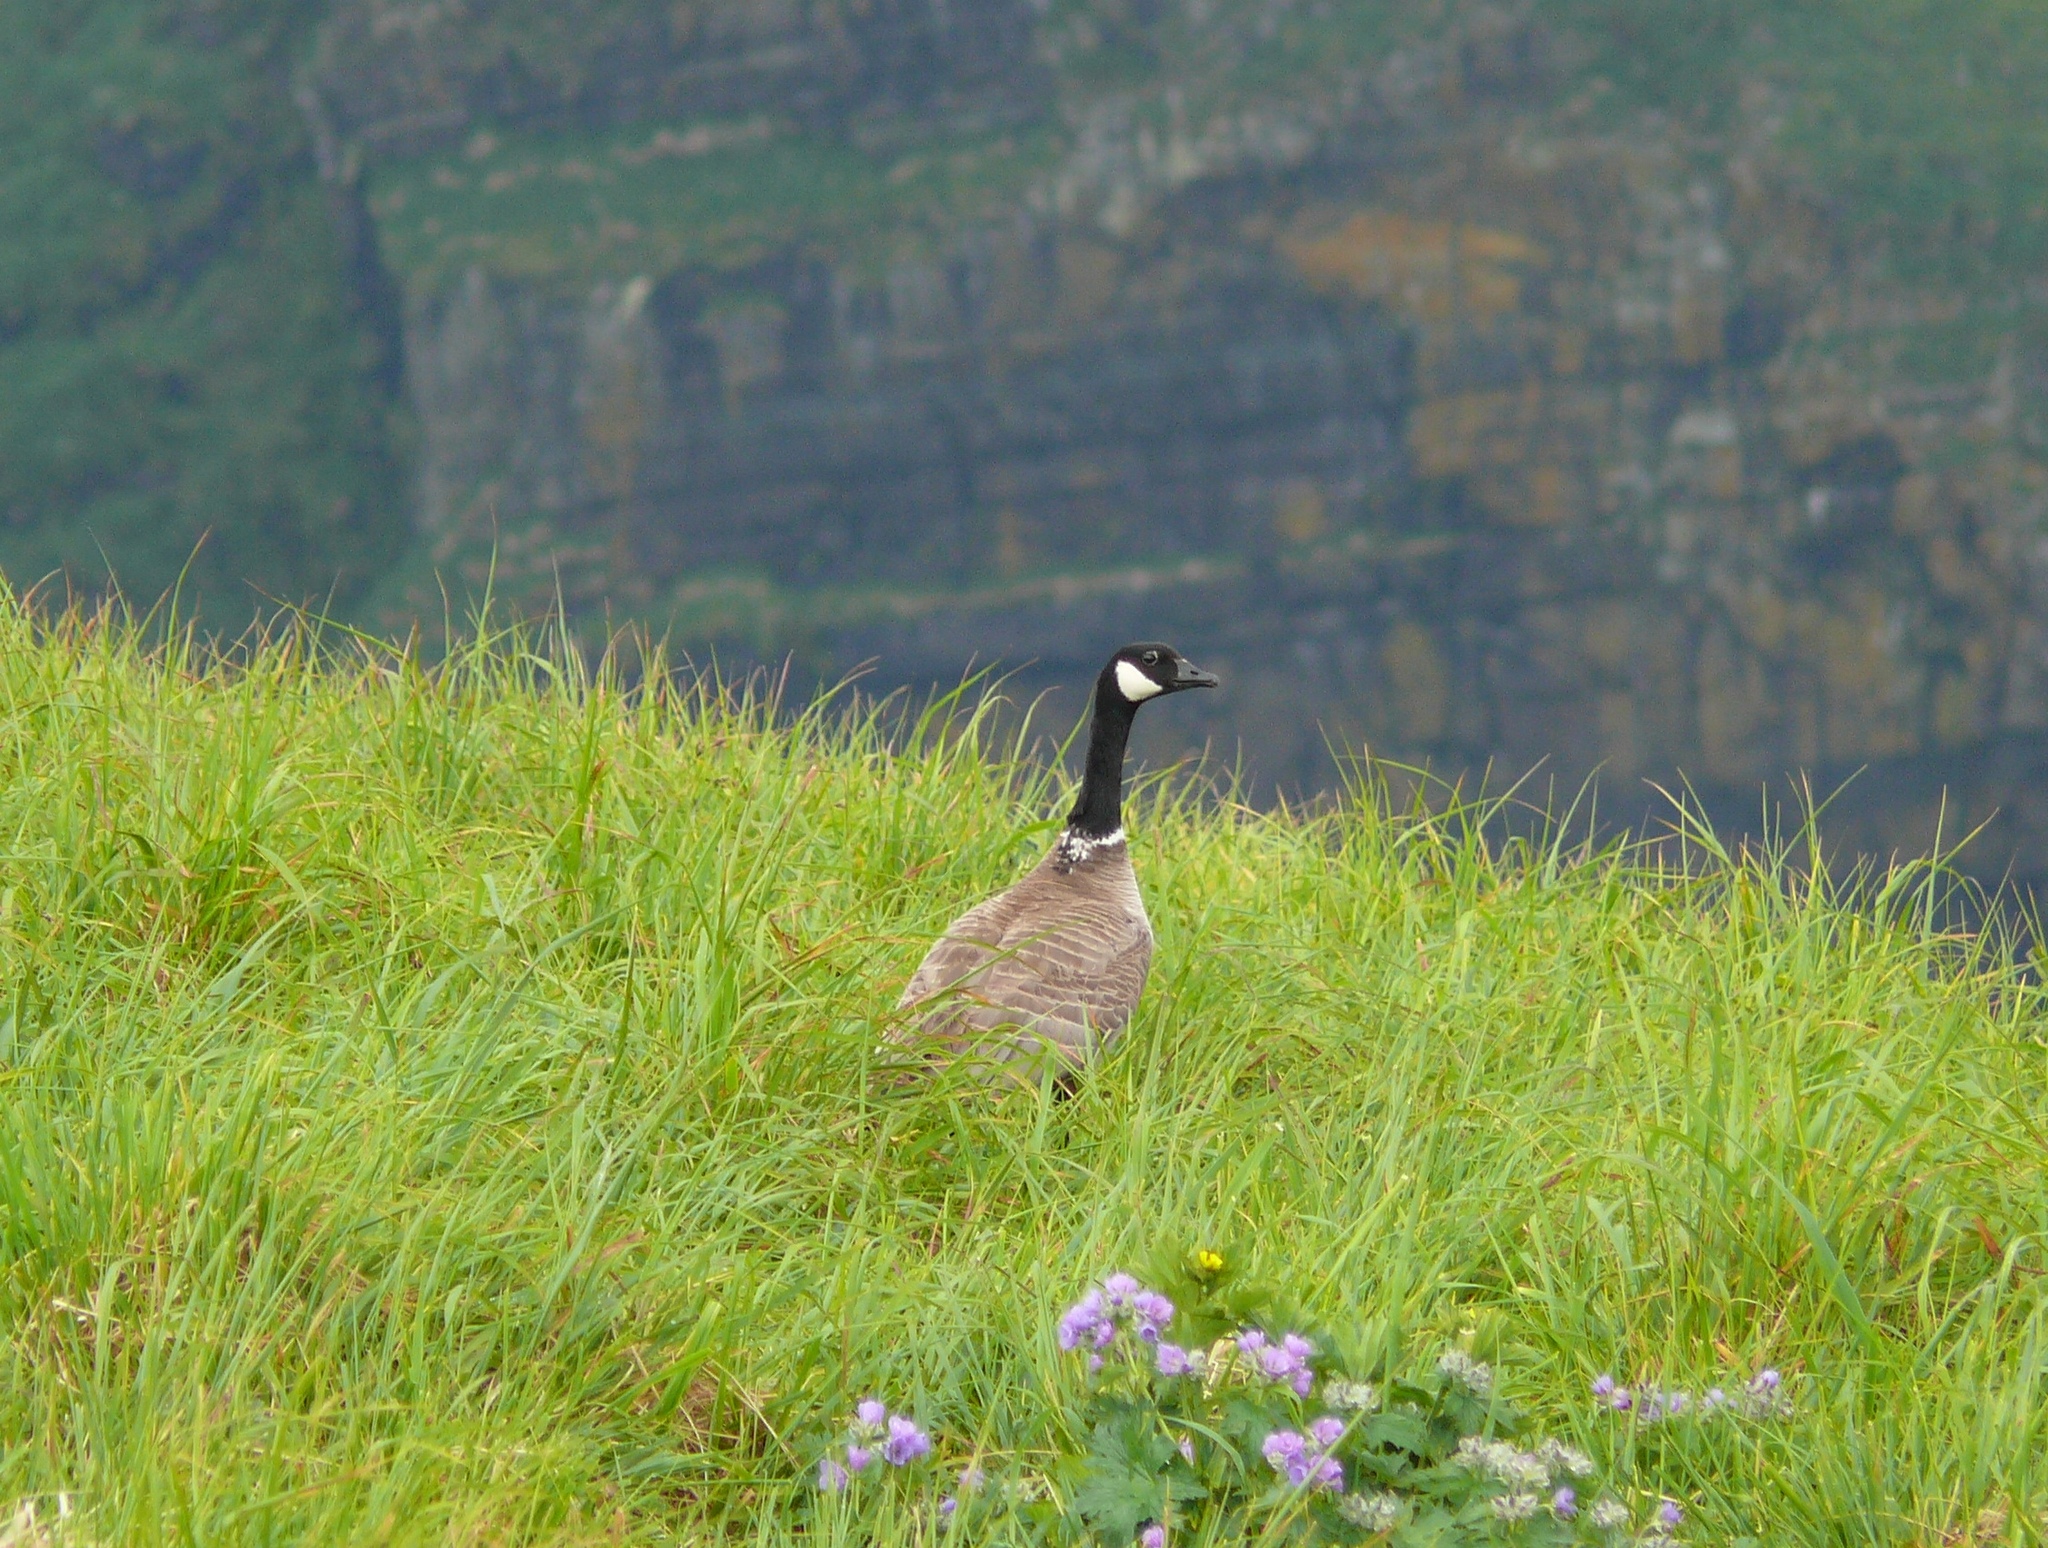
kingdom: Animalia
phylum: Chordata
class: Aves
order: Anseriformes
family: Anatidae
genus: Branta
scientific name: Branta hutchinsii
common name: Cackling goose
